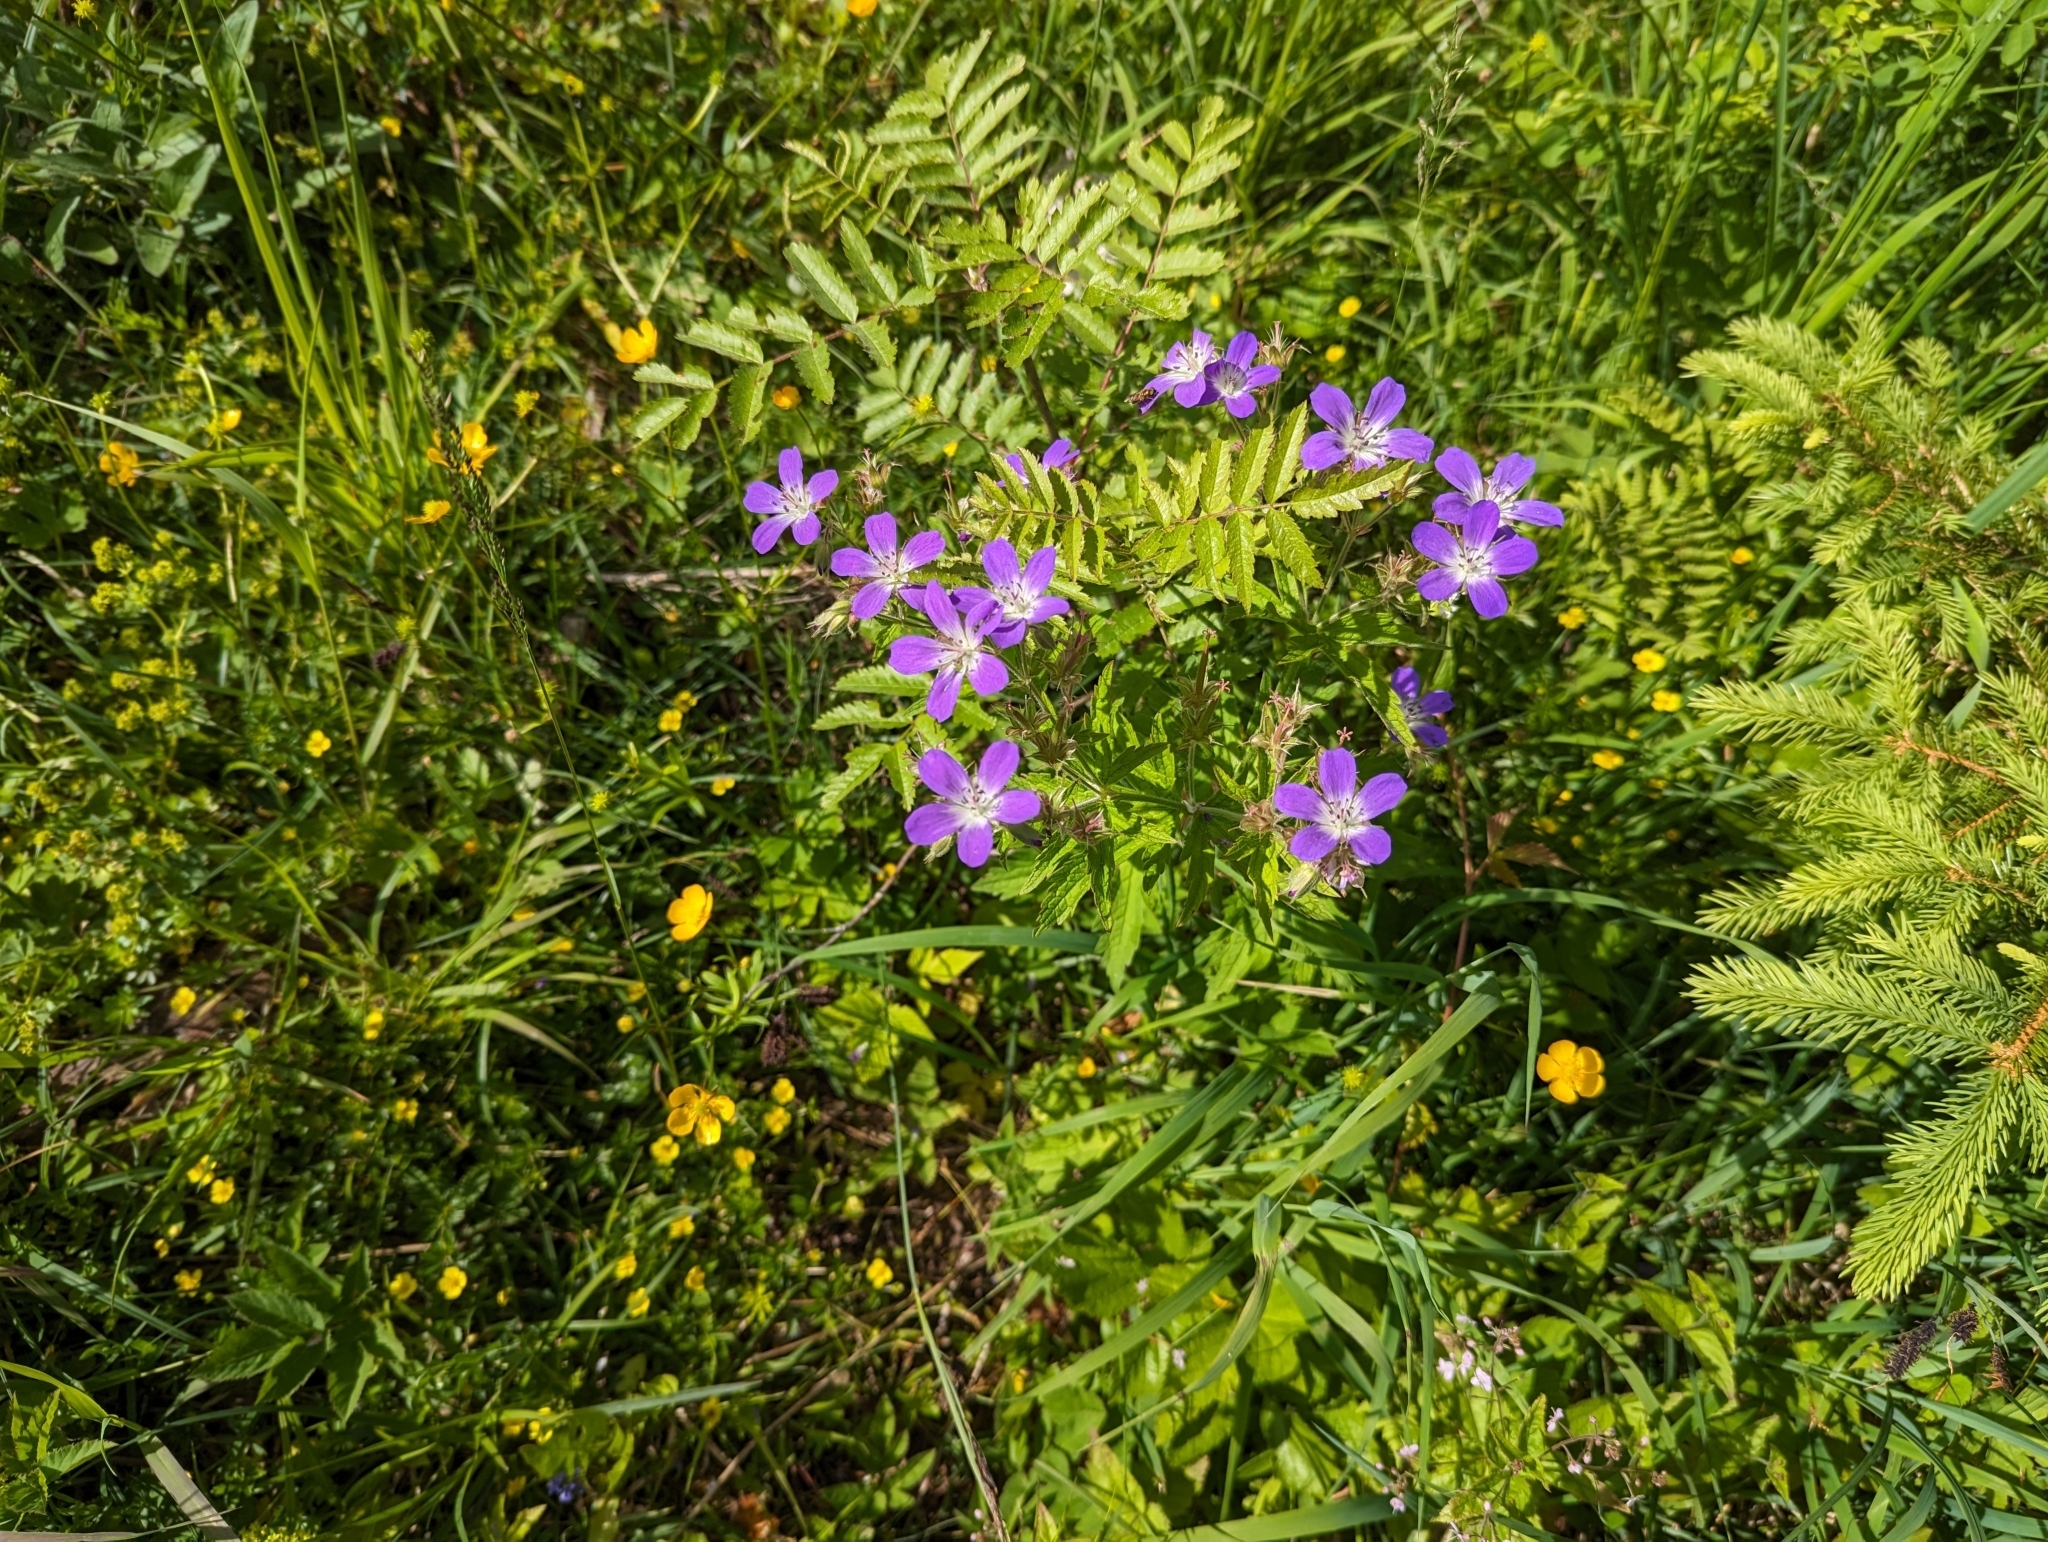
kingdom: Plantae
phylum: Tracheophyta
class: Magnoliopsida
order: Geraniales
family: Geraniaceae
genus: Geranium
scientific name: Geranium sylvaticum
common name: Wood crane's-bill
